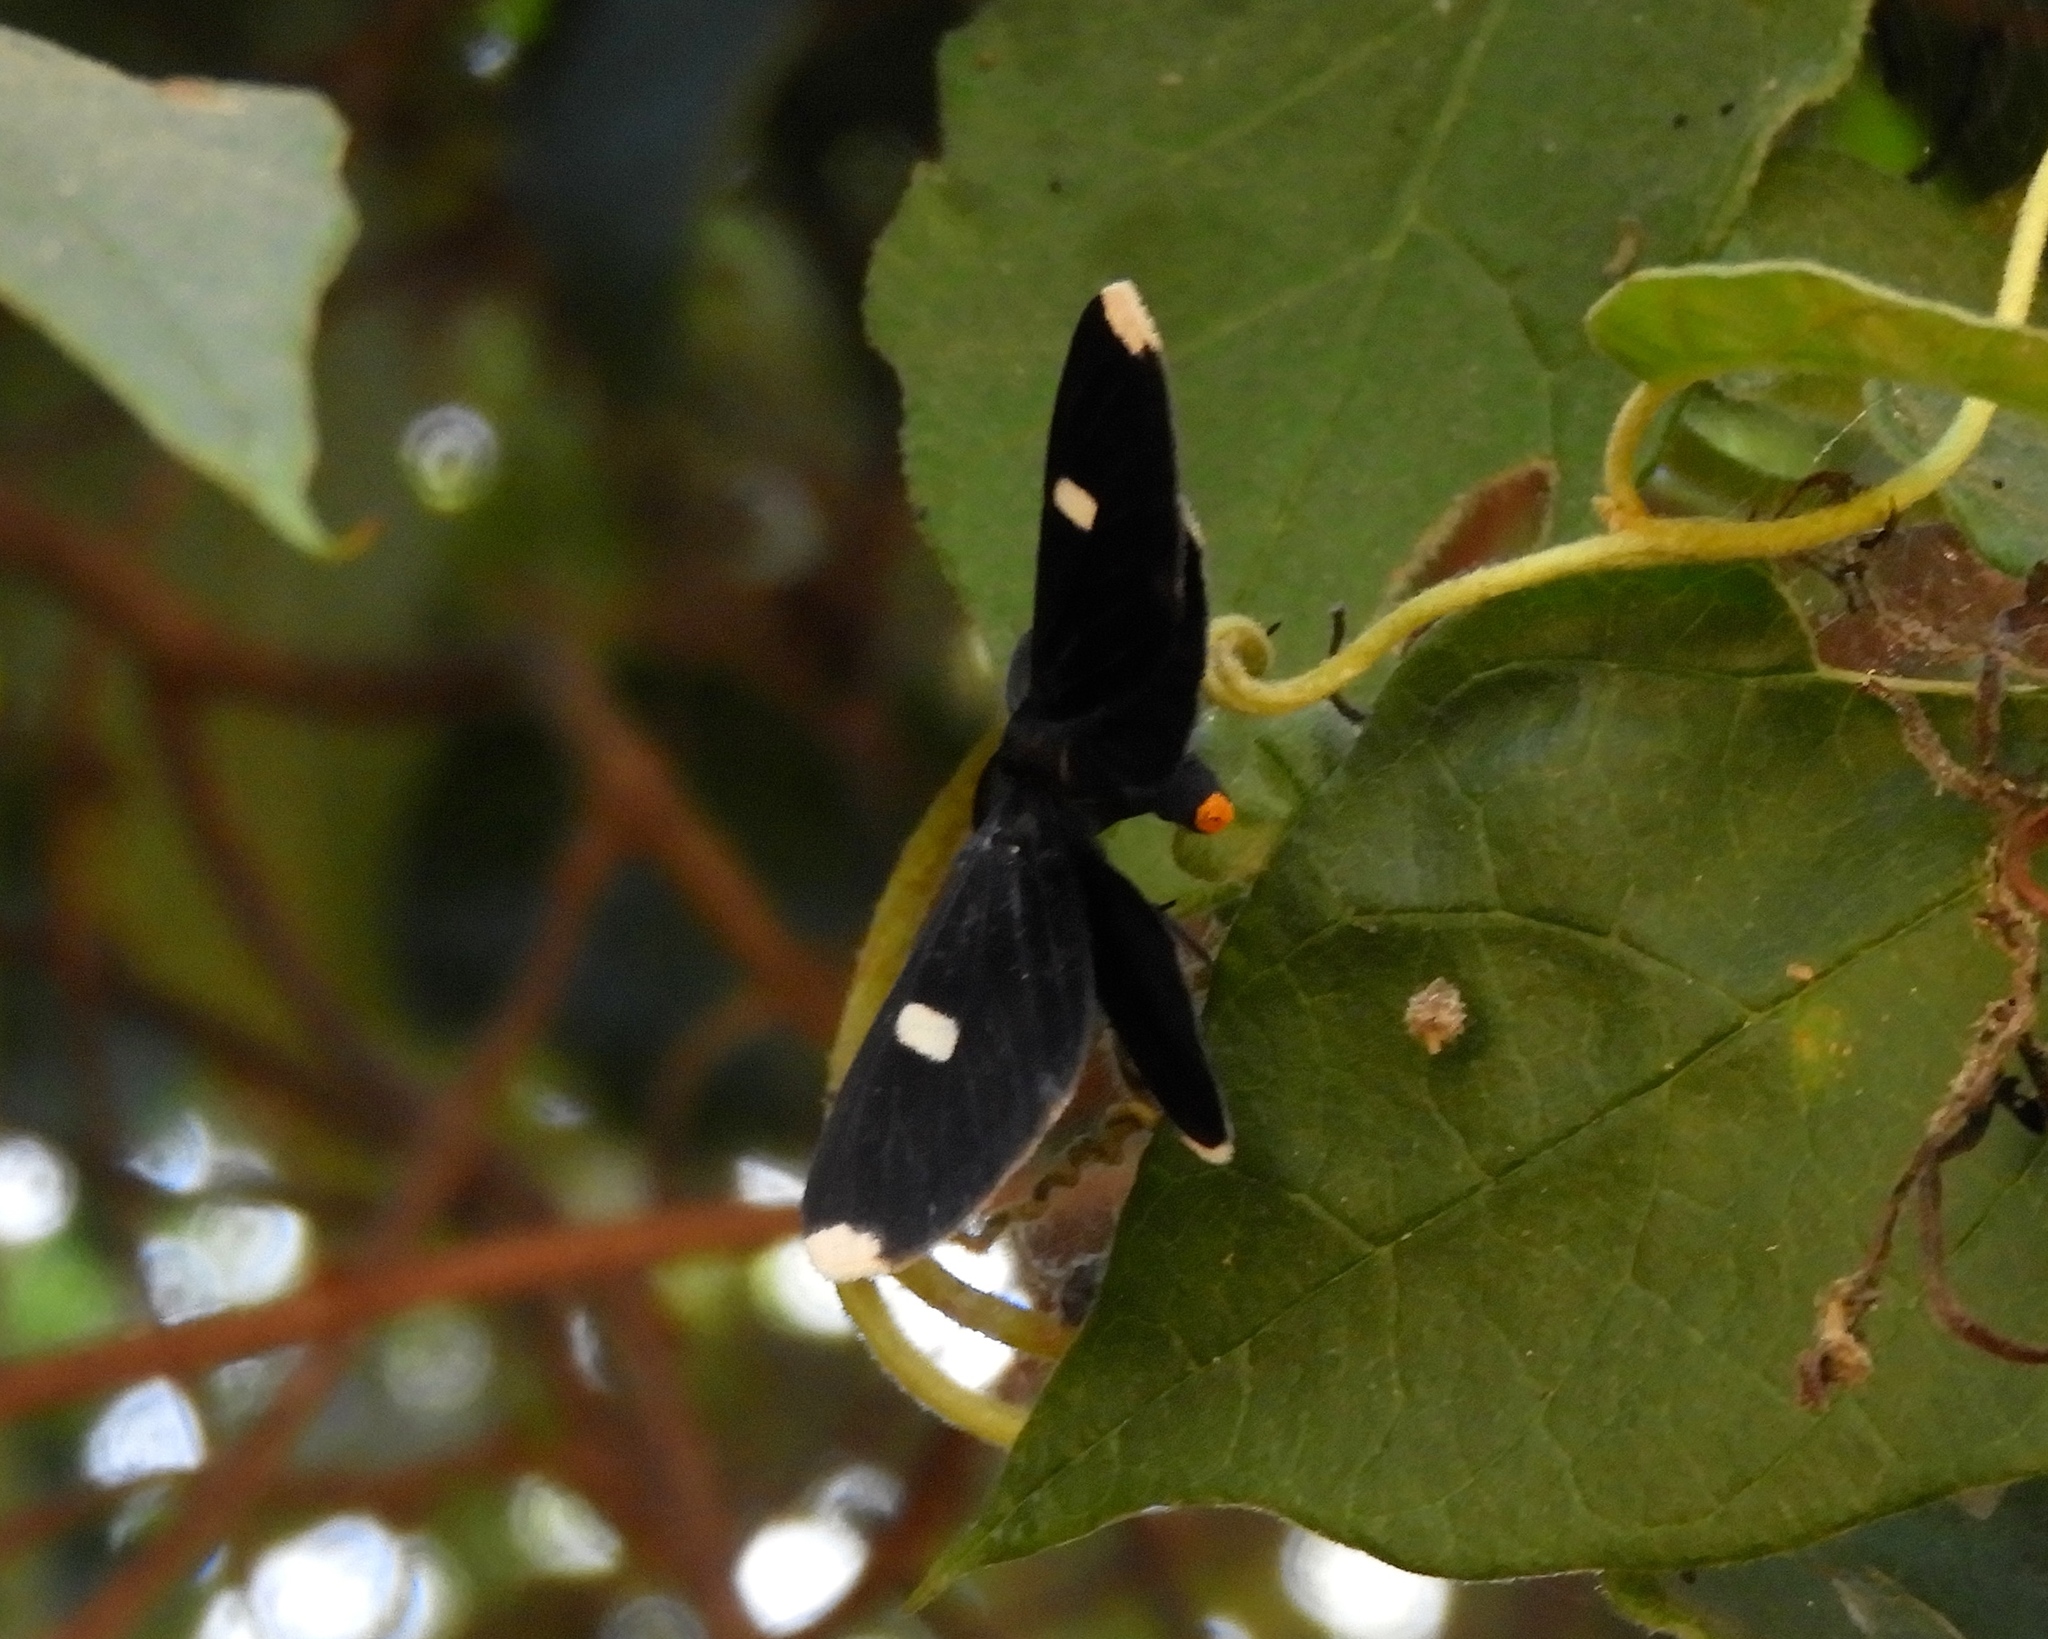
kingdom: Animalia
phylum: Arthropoda
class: Insecta
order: Lepidoptera
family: Geometridae
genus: Melanchroia
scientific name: Melanchroia vazquezae
